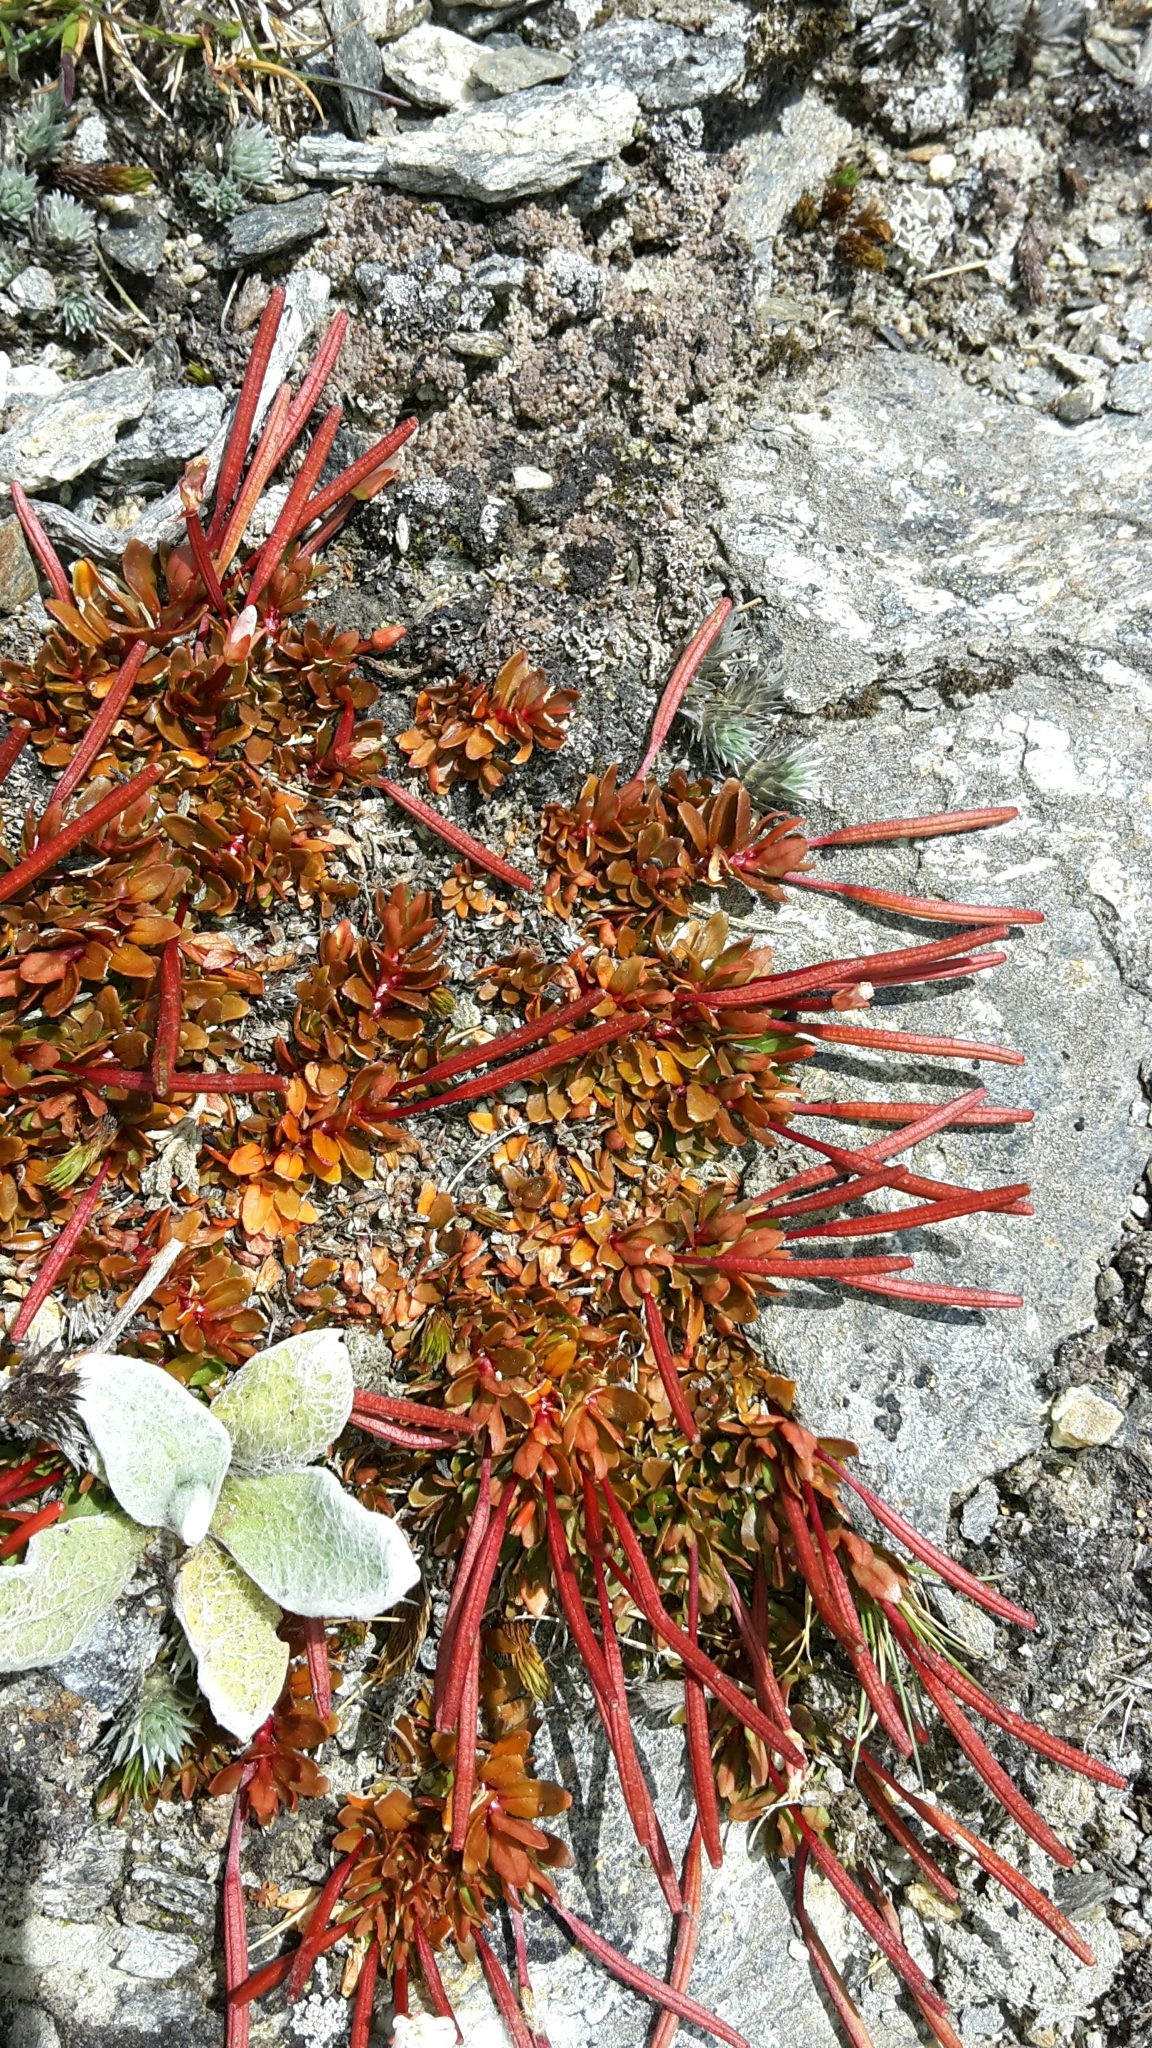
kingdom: Plantae
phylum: Tracheophyta
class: Magnoliopsida
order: Myrtales
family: Onagraceae
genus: Epilobium
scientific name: Epilobium tasmanicum
